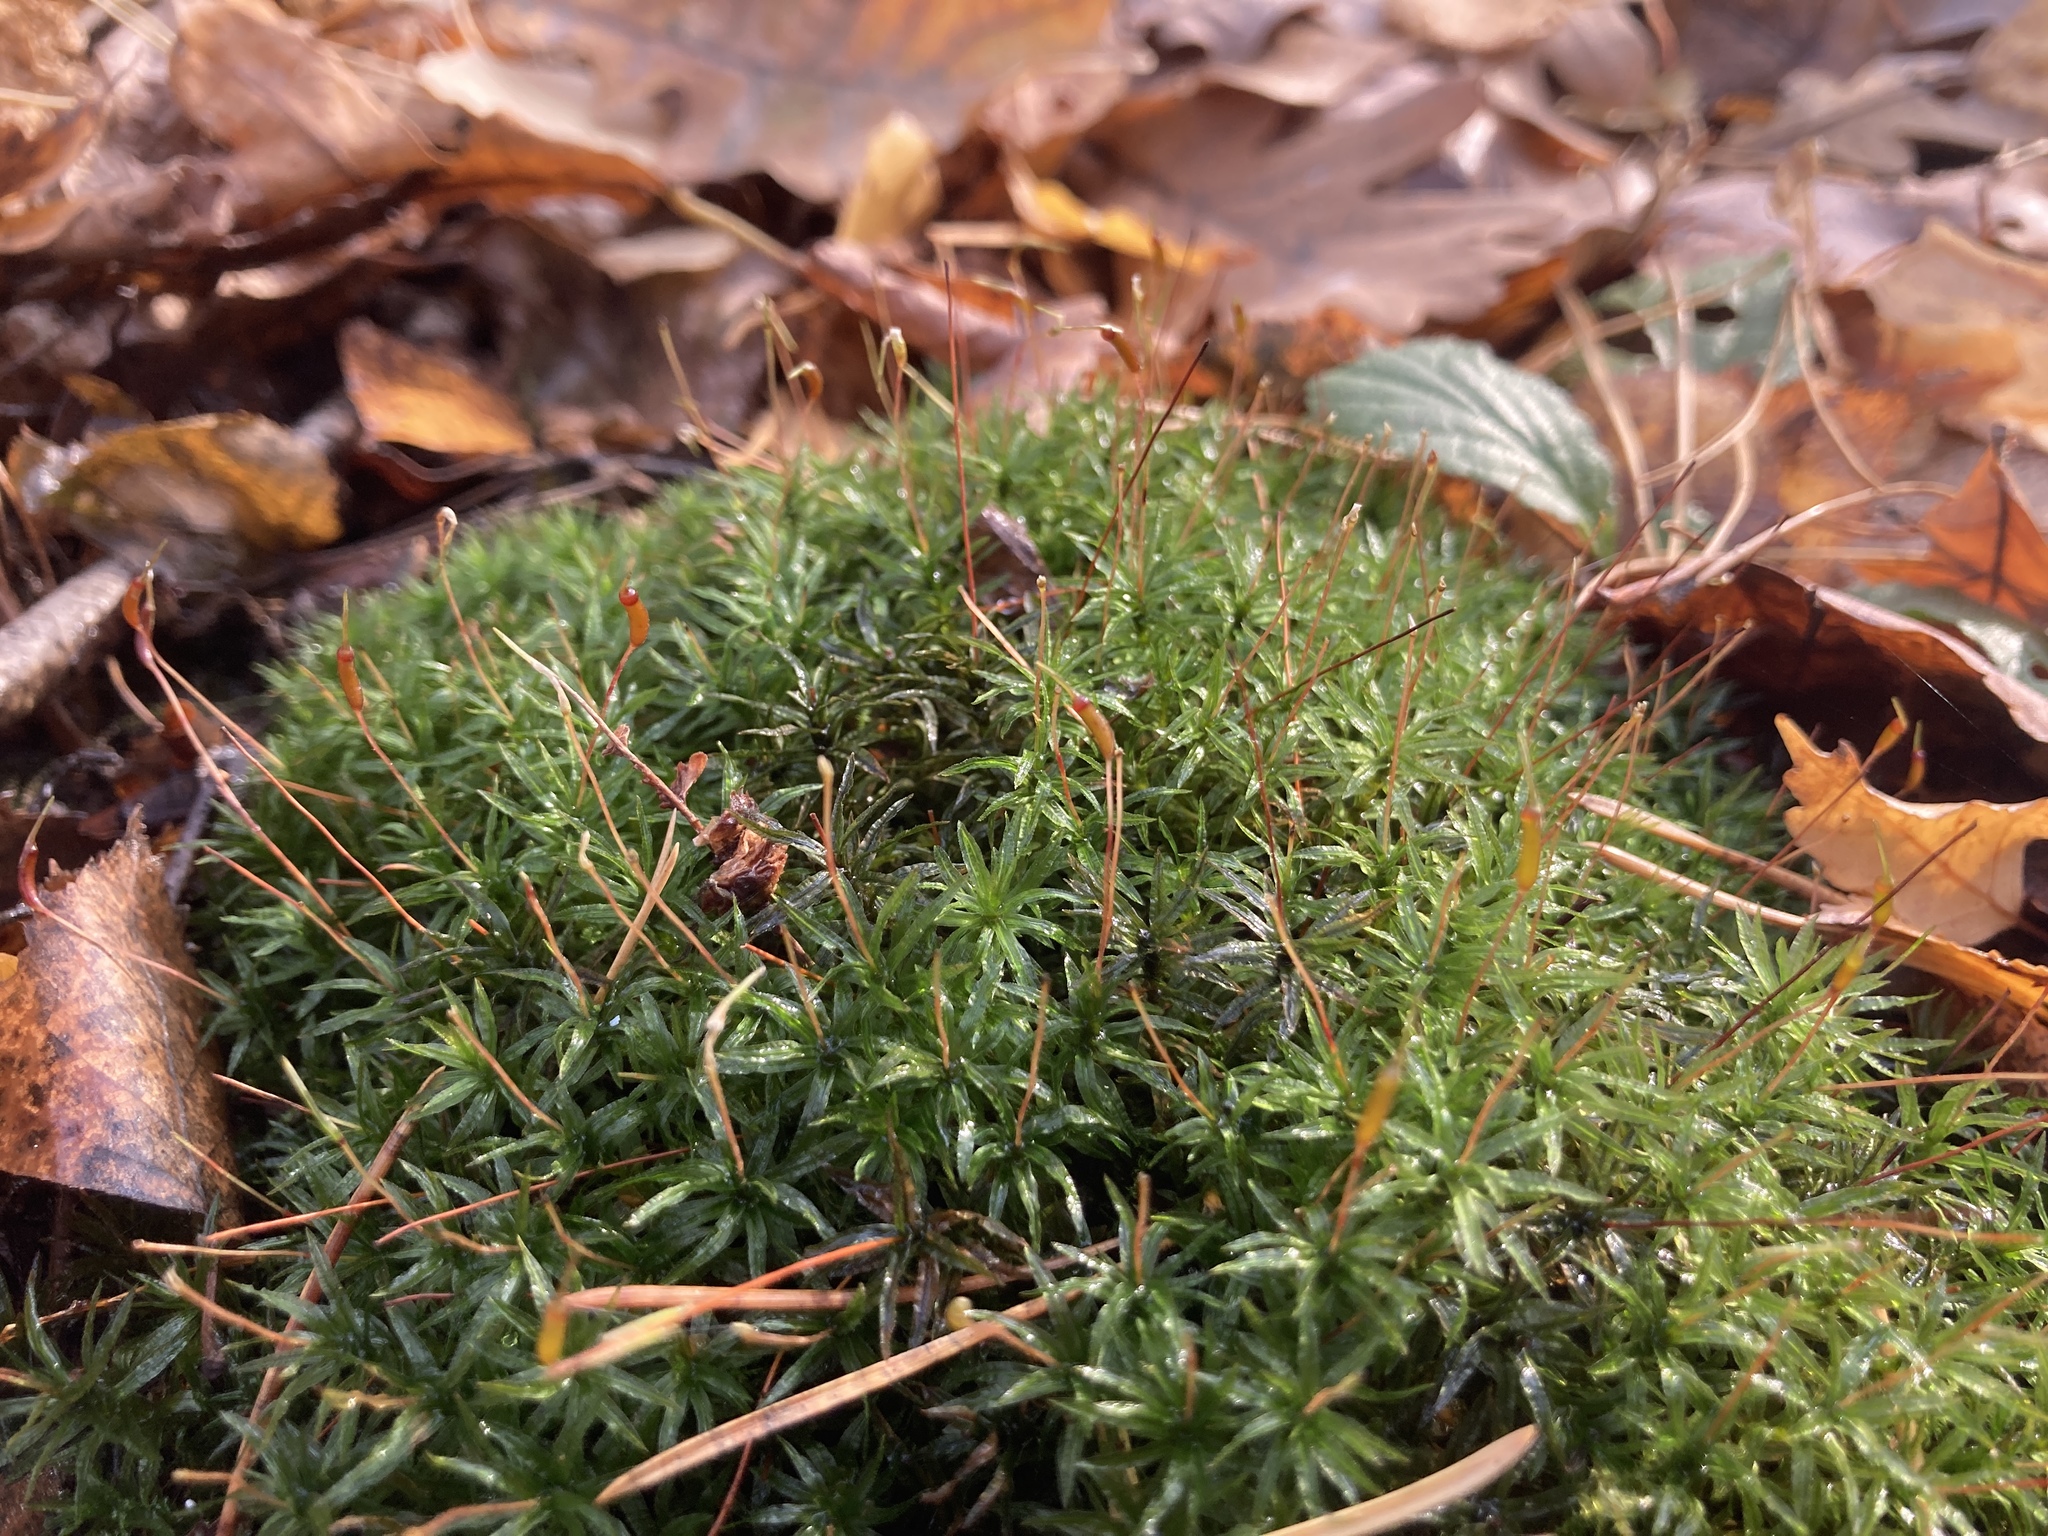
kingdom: Plantae
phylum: Bryophyta
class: Polytrichopsida
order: Polytrichales
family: Polytrichaceae
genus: Atrichum
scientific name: Atrichum undulatum
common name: Common smoothcap
